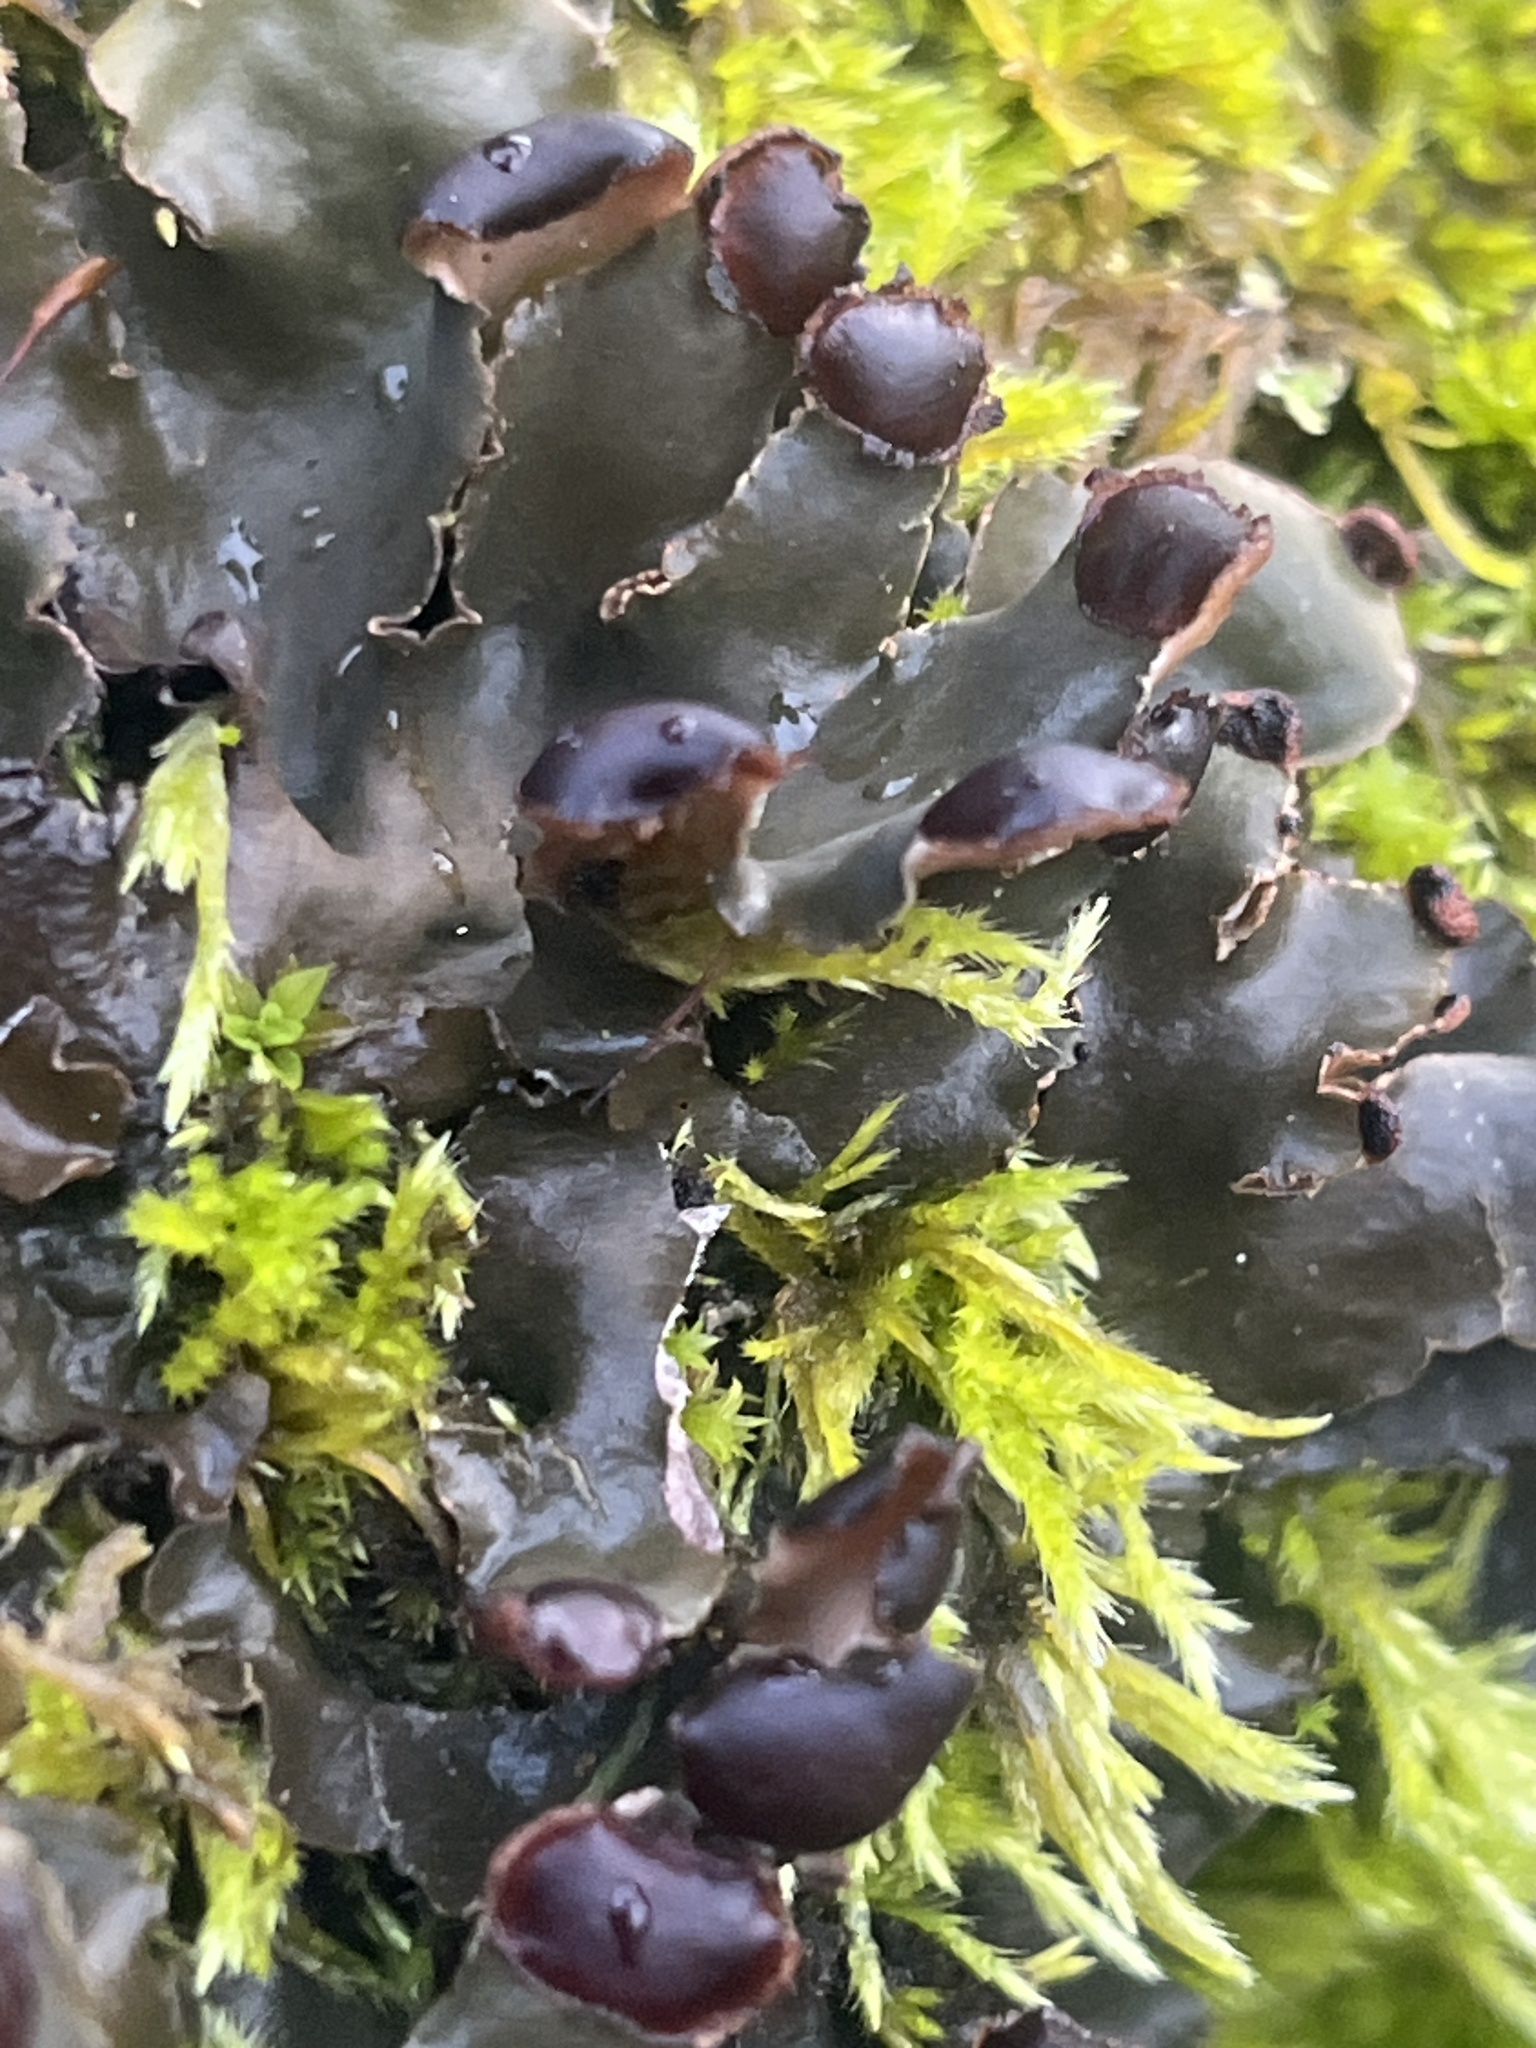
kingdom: Fungi
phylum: Ascomycota
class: Lecanoromycetes
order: Peltigerales
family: Peltigeraceae
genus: Peltigera
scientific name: Peltigera collina
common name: Gritty tree pelt lichen
